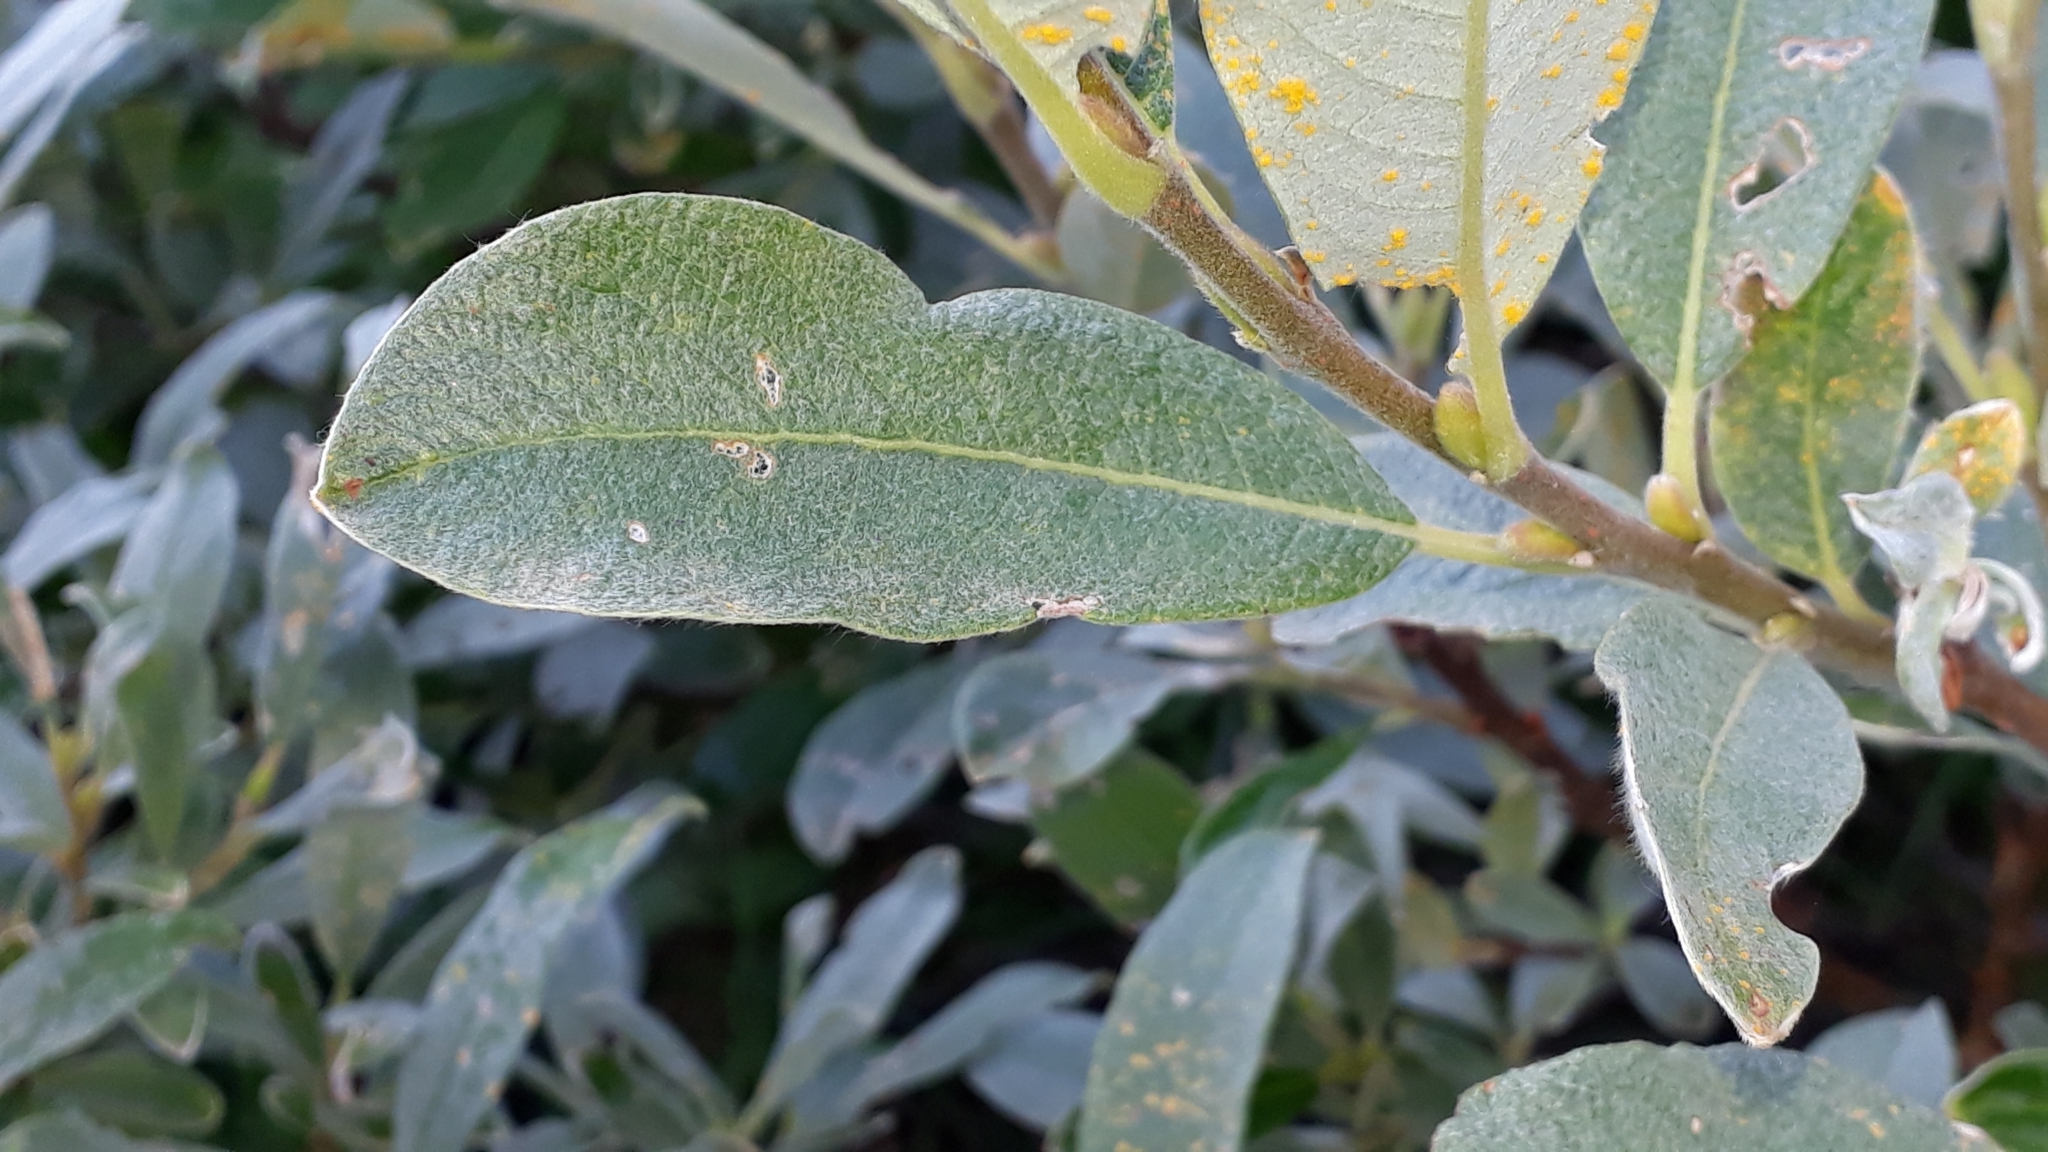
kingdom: Plantae
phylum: Tracheophyta
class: Magnoliopsida
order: Malpighiales
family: Salicaceae
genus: Salix
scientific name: Salix glauca
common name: Glaucous willow
